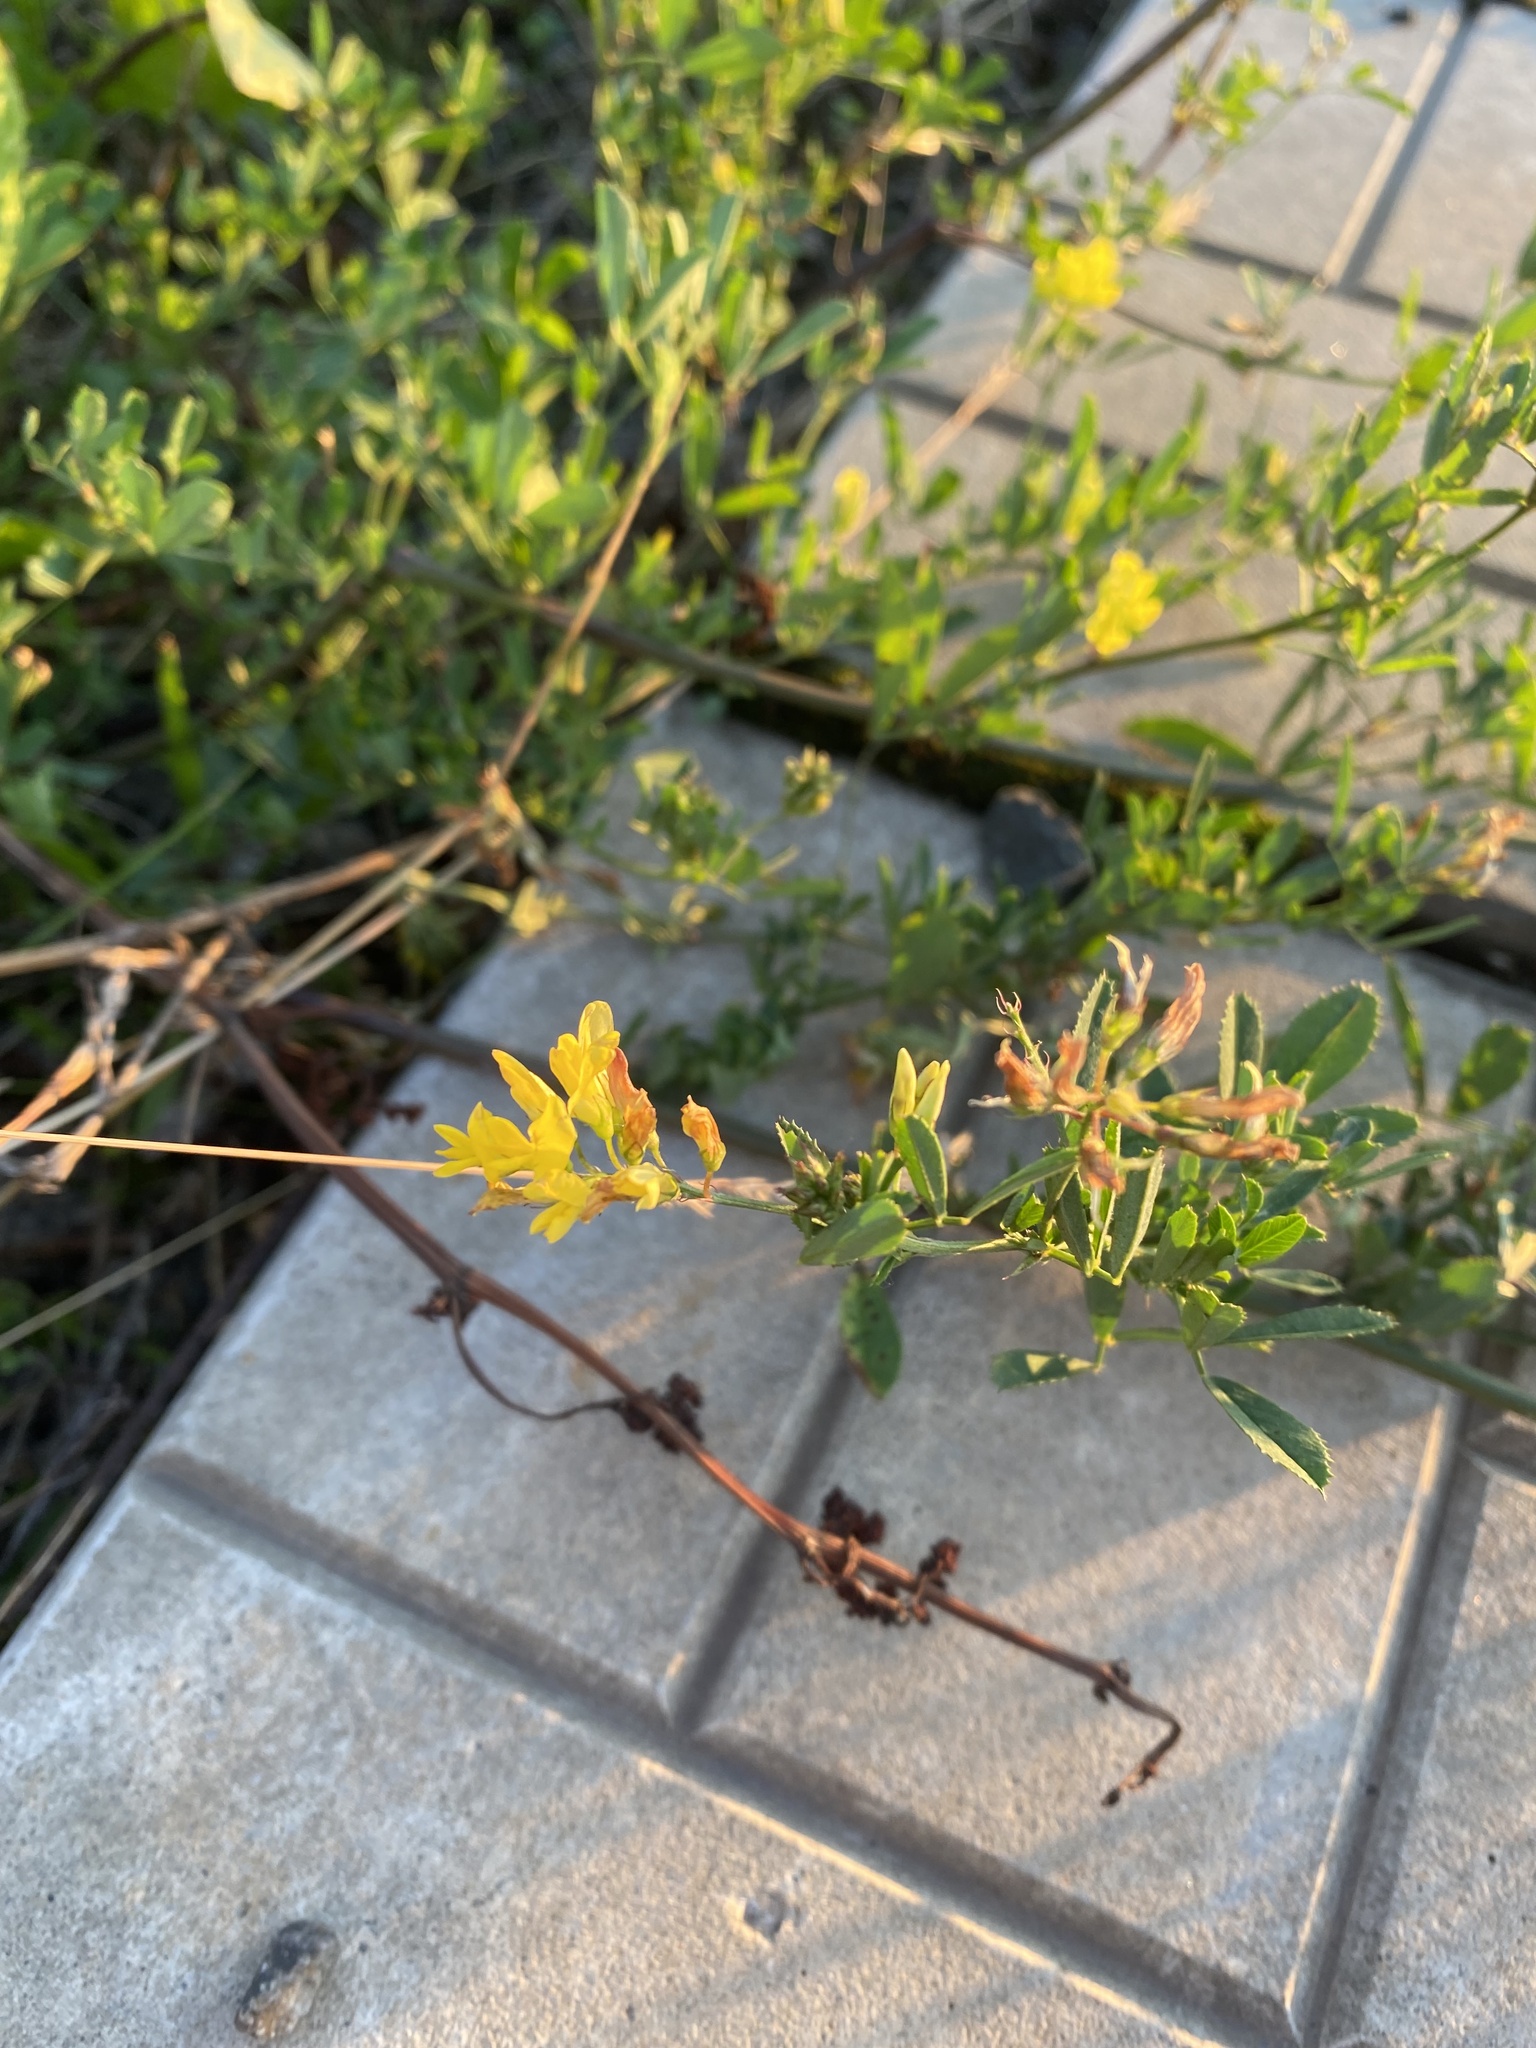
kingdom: Plantae
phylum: Tracheophyta
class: Magnoliopsida
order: Fabales
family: Fabaceae
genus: Medicago
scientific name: Medicago falcata
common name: Sickle medick
